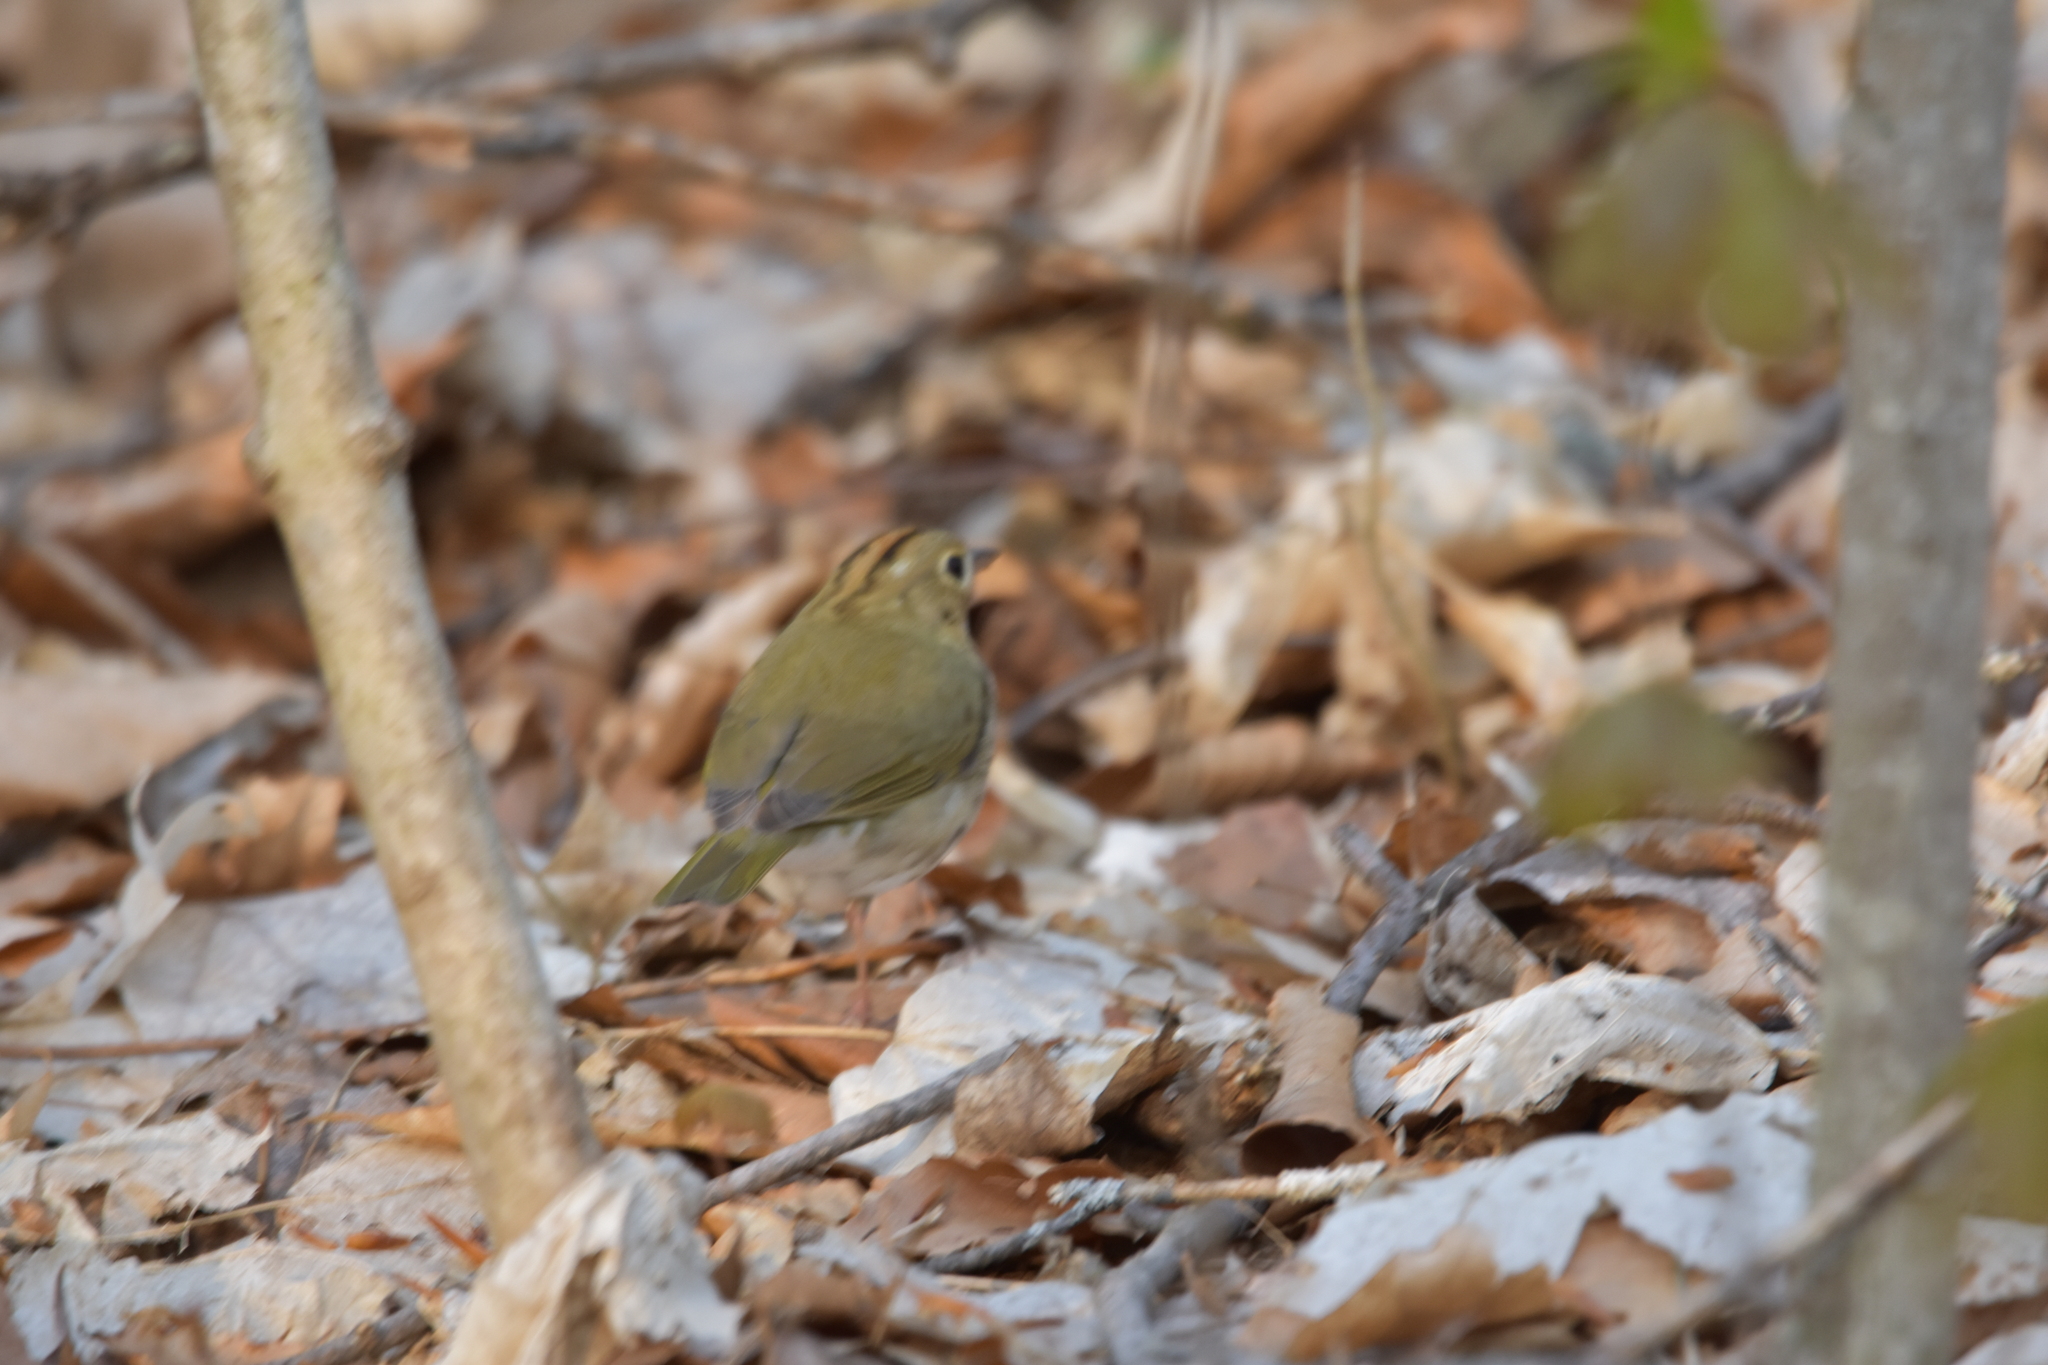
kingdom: Animalia
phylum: Chordata
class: Aves
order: Passeriformes
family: Parulidae
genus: Seiurus
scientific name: Seiurus aurocapilla
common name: Ovenbird
